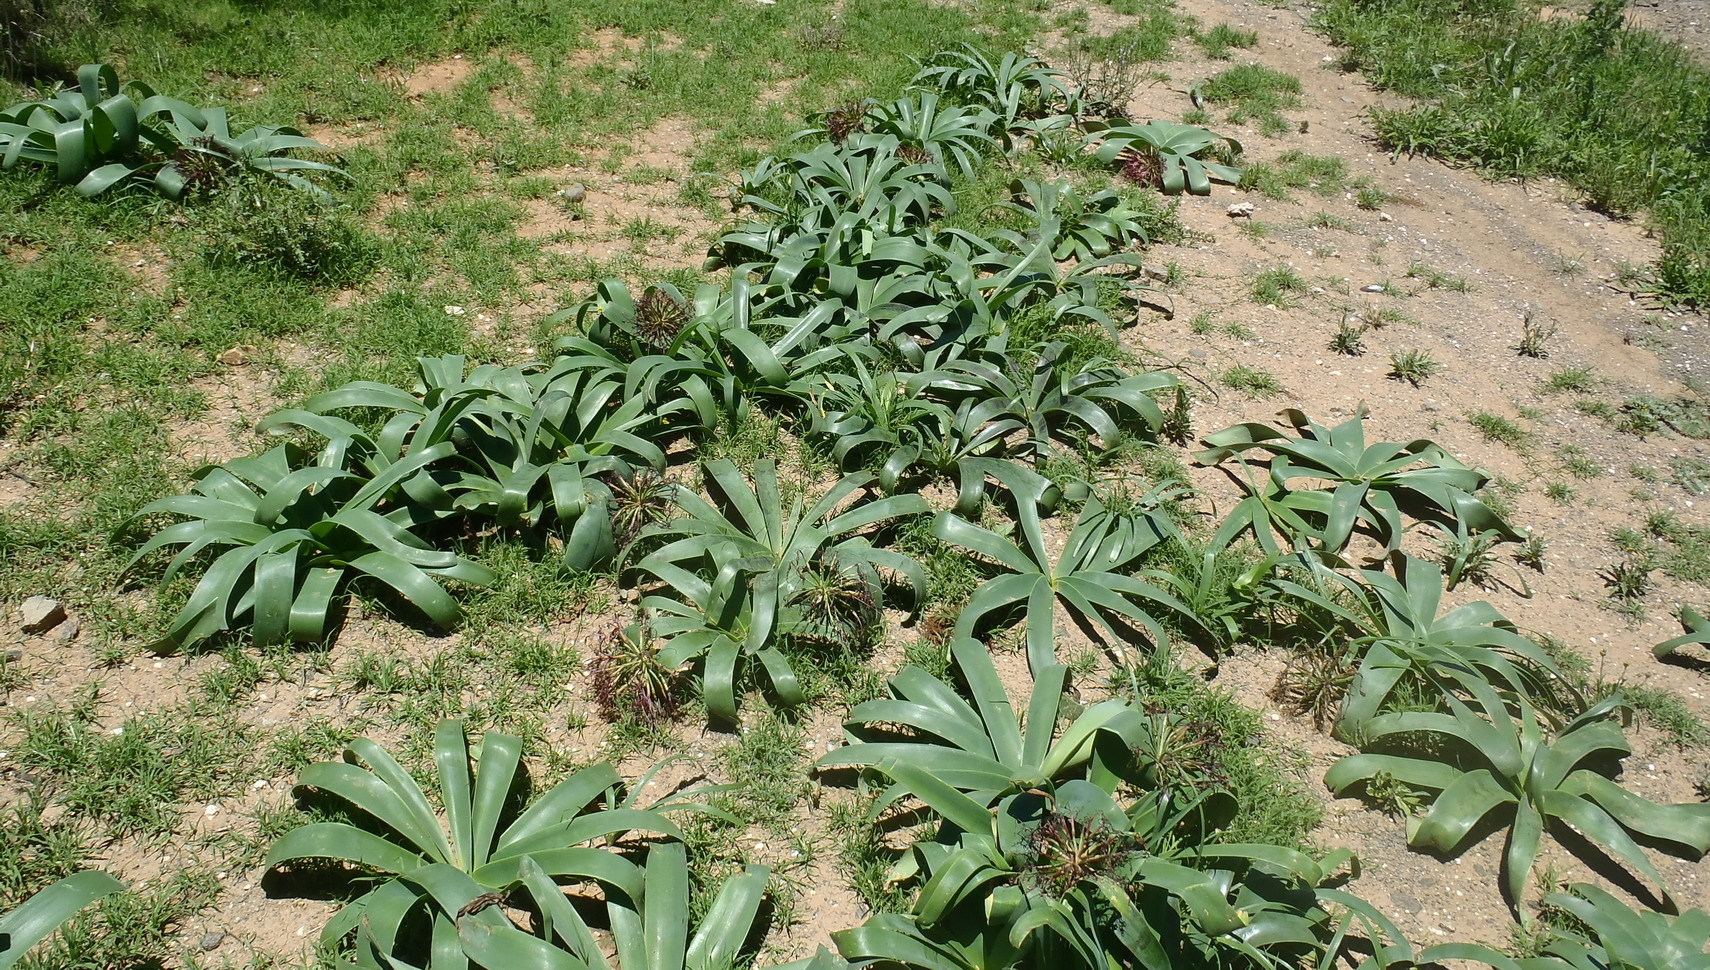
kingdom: Plantae
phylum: Tracheophyta
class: Liliopsida
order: Asparagales
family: Amaryllidaceae
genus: Ammocharis
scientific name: Ammocharis coranica
